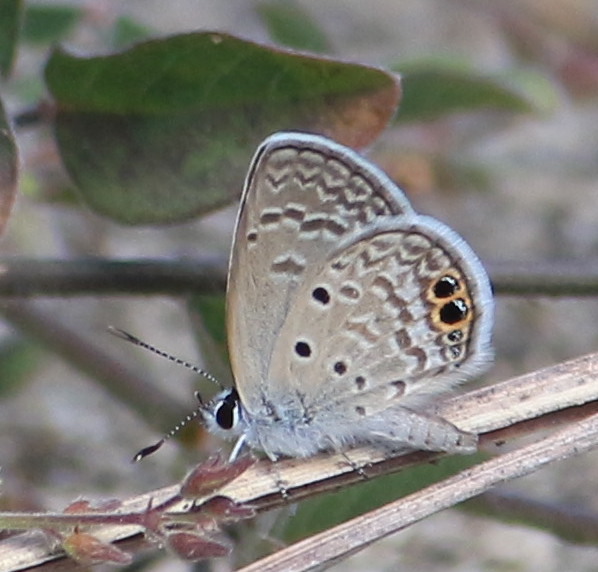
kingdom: Animalia
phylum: Arthropoda
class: Insecta
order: Lepidoptera
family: Lycaenidae
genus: Hemiargus
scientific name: Hemiargus ceraunus
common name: Ceraunus blue
